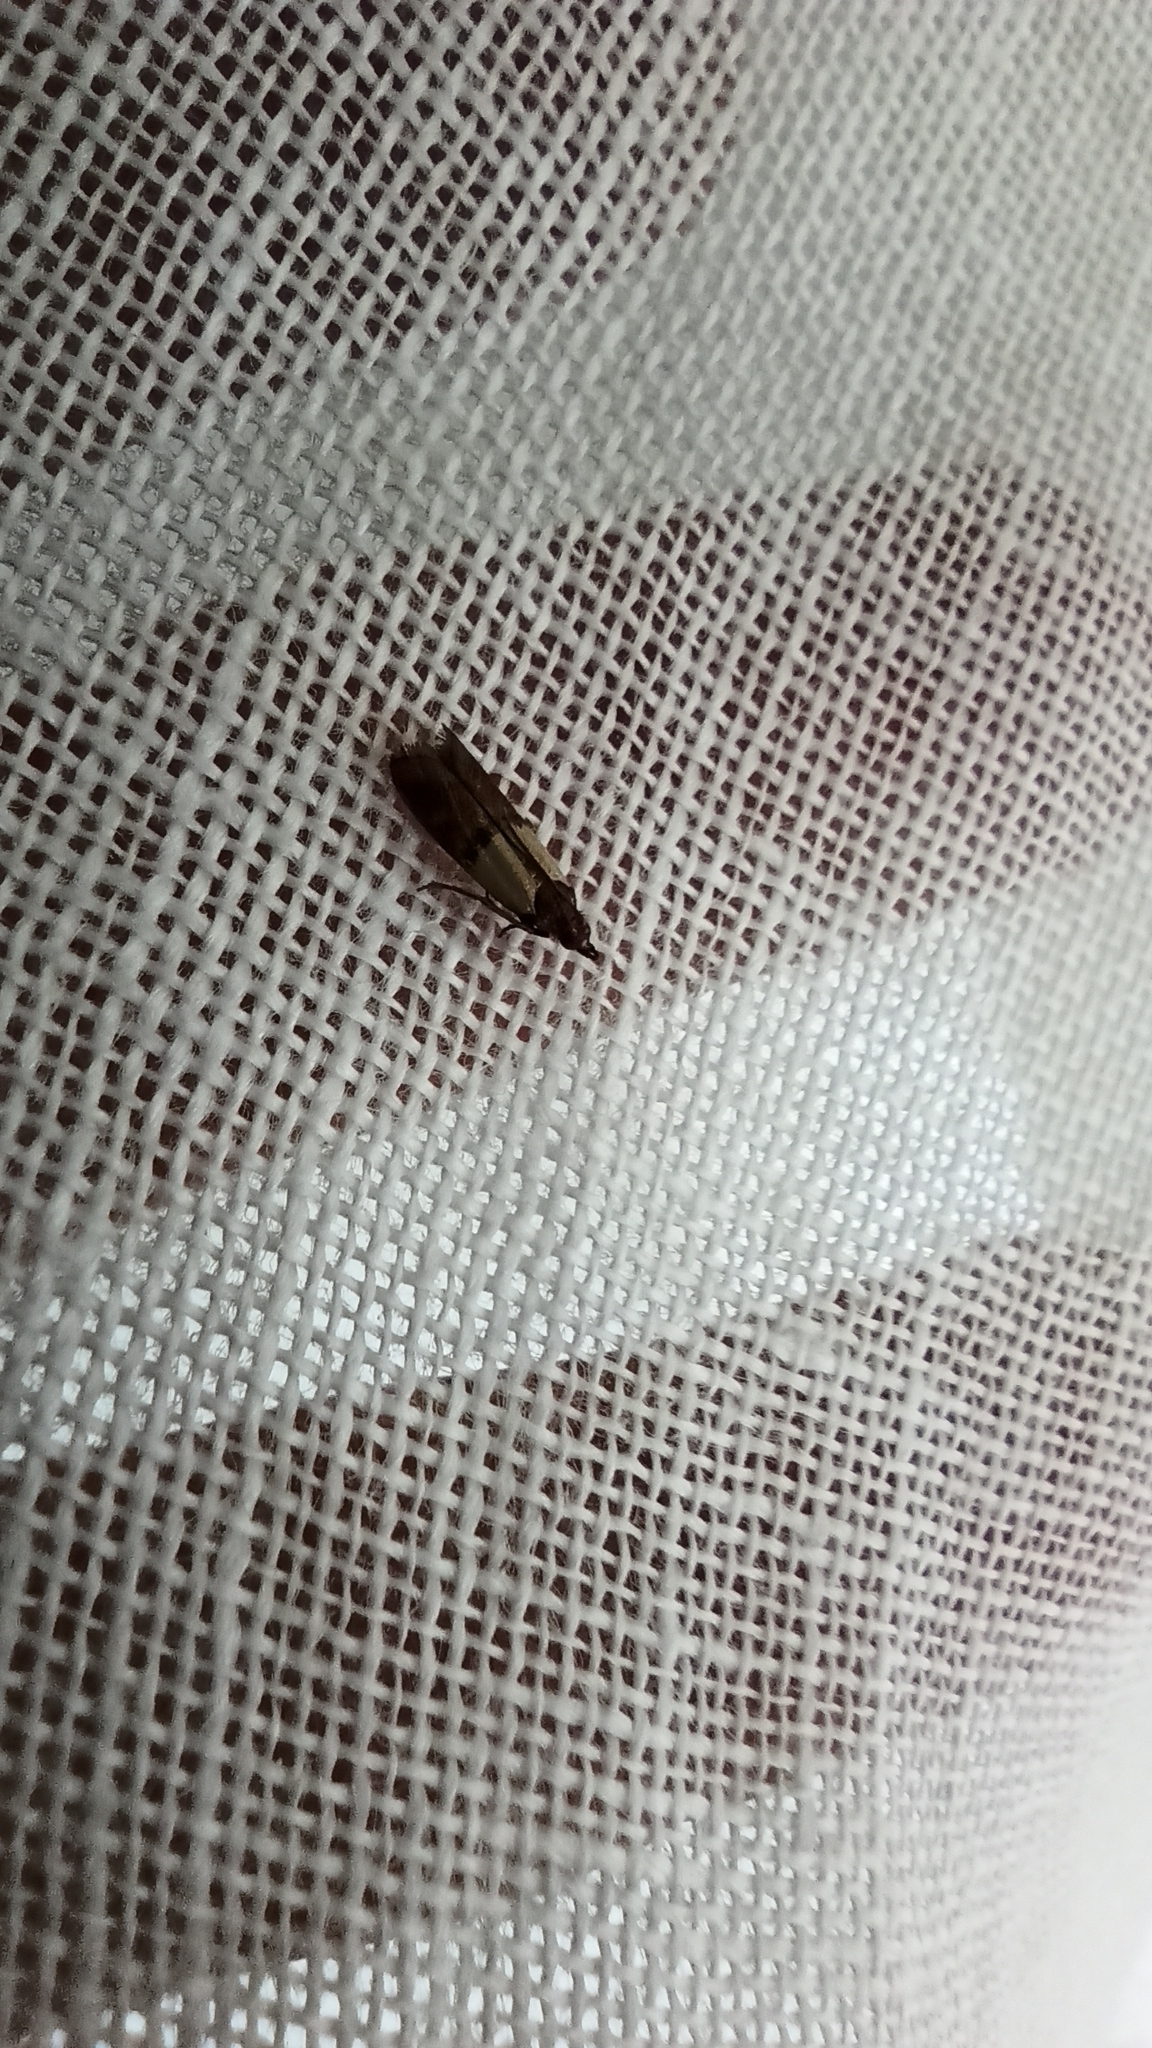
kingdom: Animalia
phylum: Arthropoda
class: Insecta
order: Lepidoptera
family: Pyralidae
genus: Plodia
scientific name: Plodia interpunctella
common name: Indian meal moth
